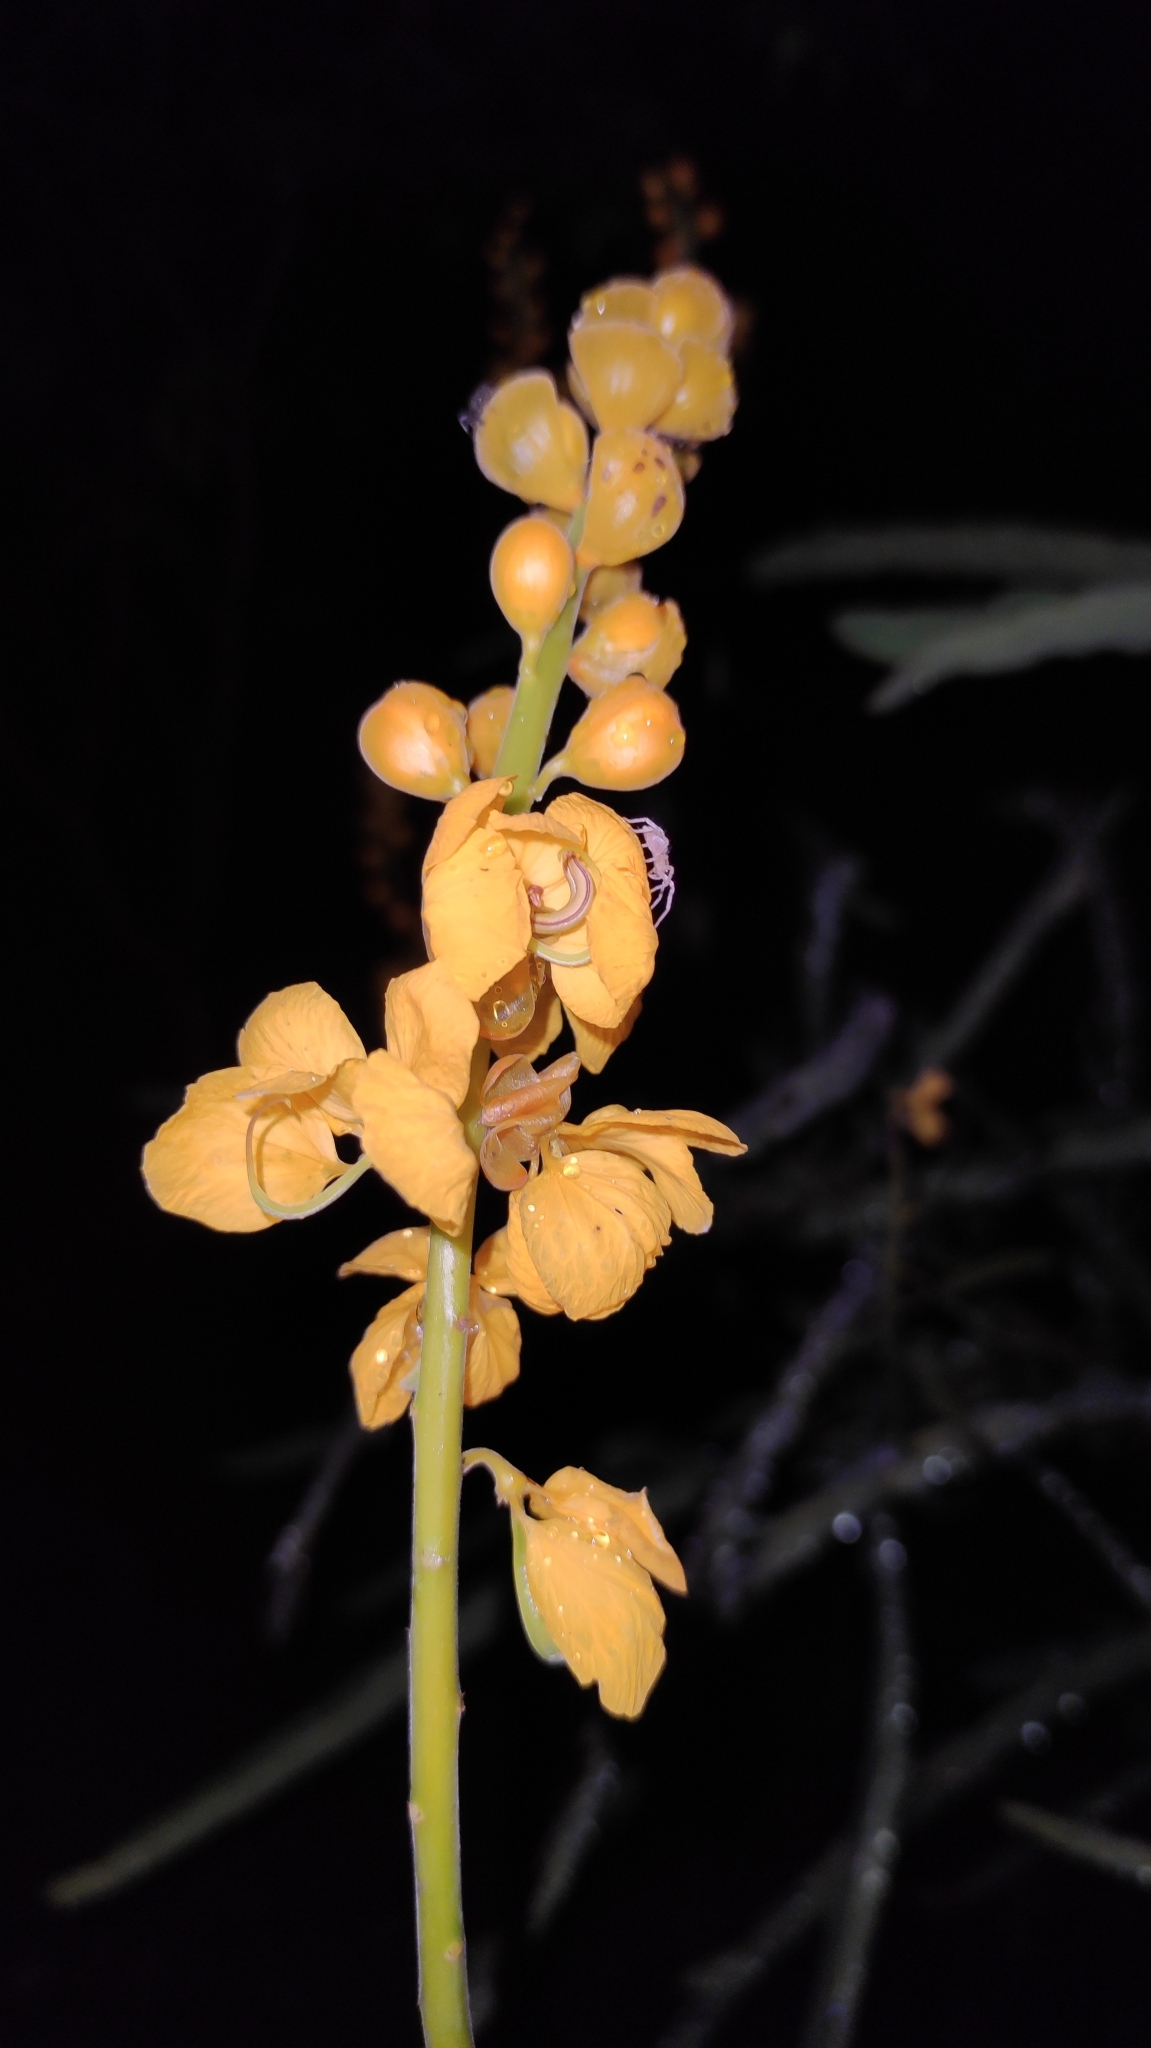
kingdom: Plantae
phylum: Tracheophyta
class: Magnoliopsida
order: Fabales
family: Fabaceae
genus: Senna
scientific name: Senna martiana
